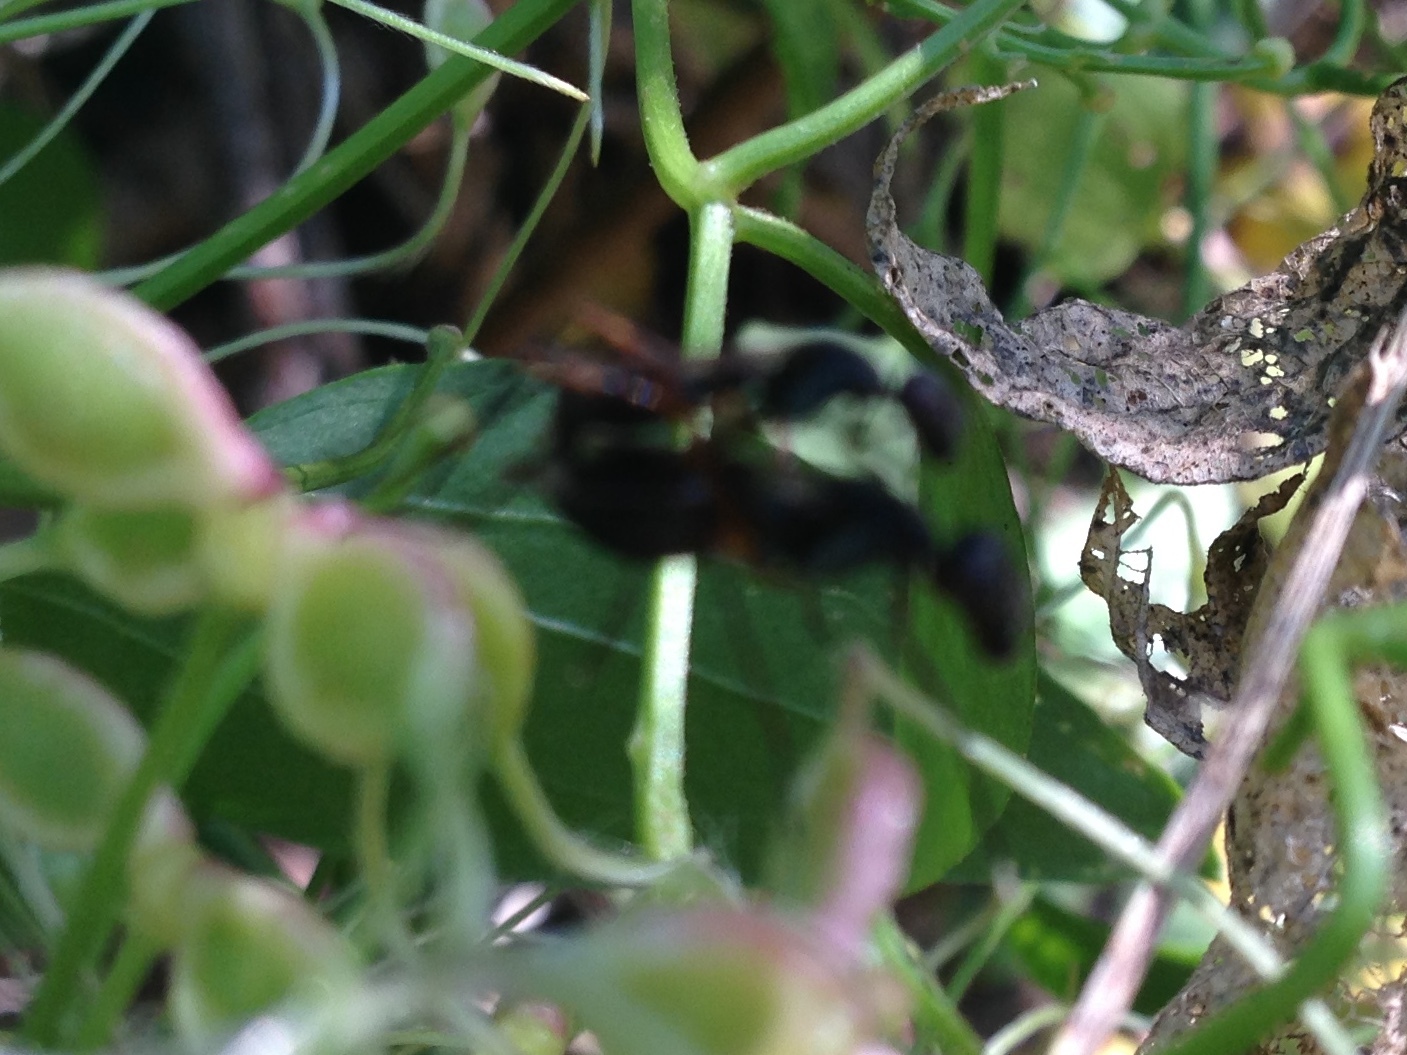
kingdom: Animalia
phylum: Arthropoda
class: Insecta
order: Diptera
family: Micropezidae
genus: Taeniaptera
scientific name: Taeniaptera trivittata
